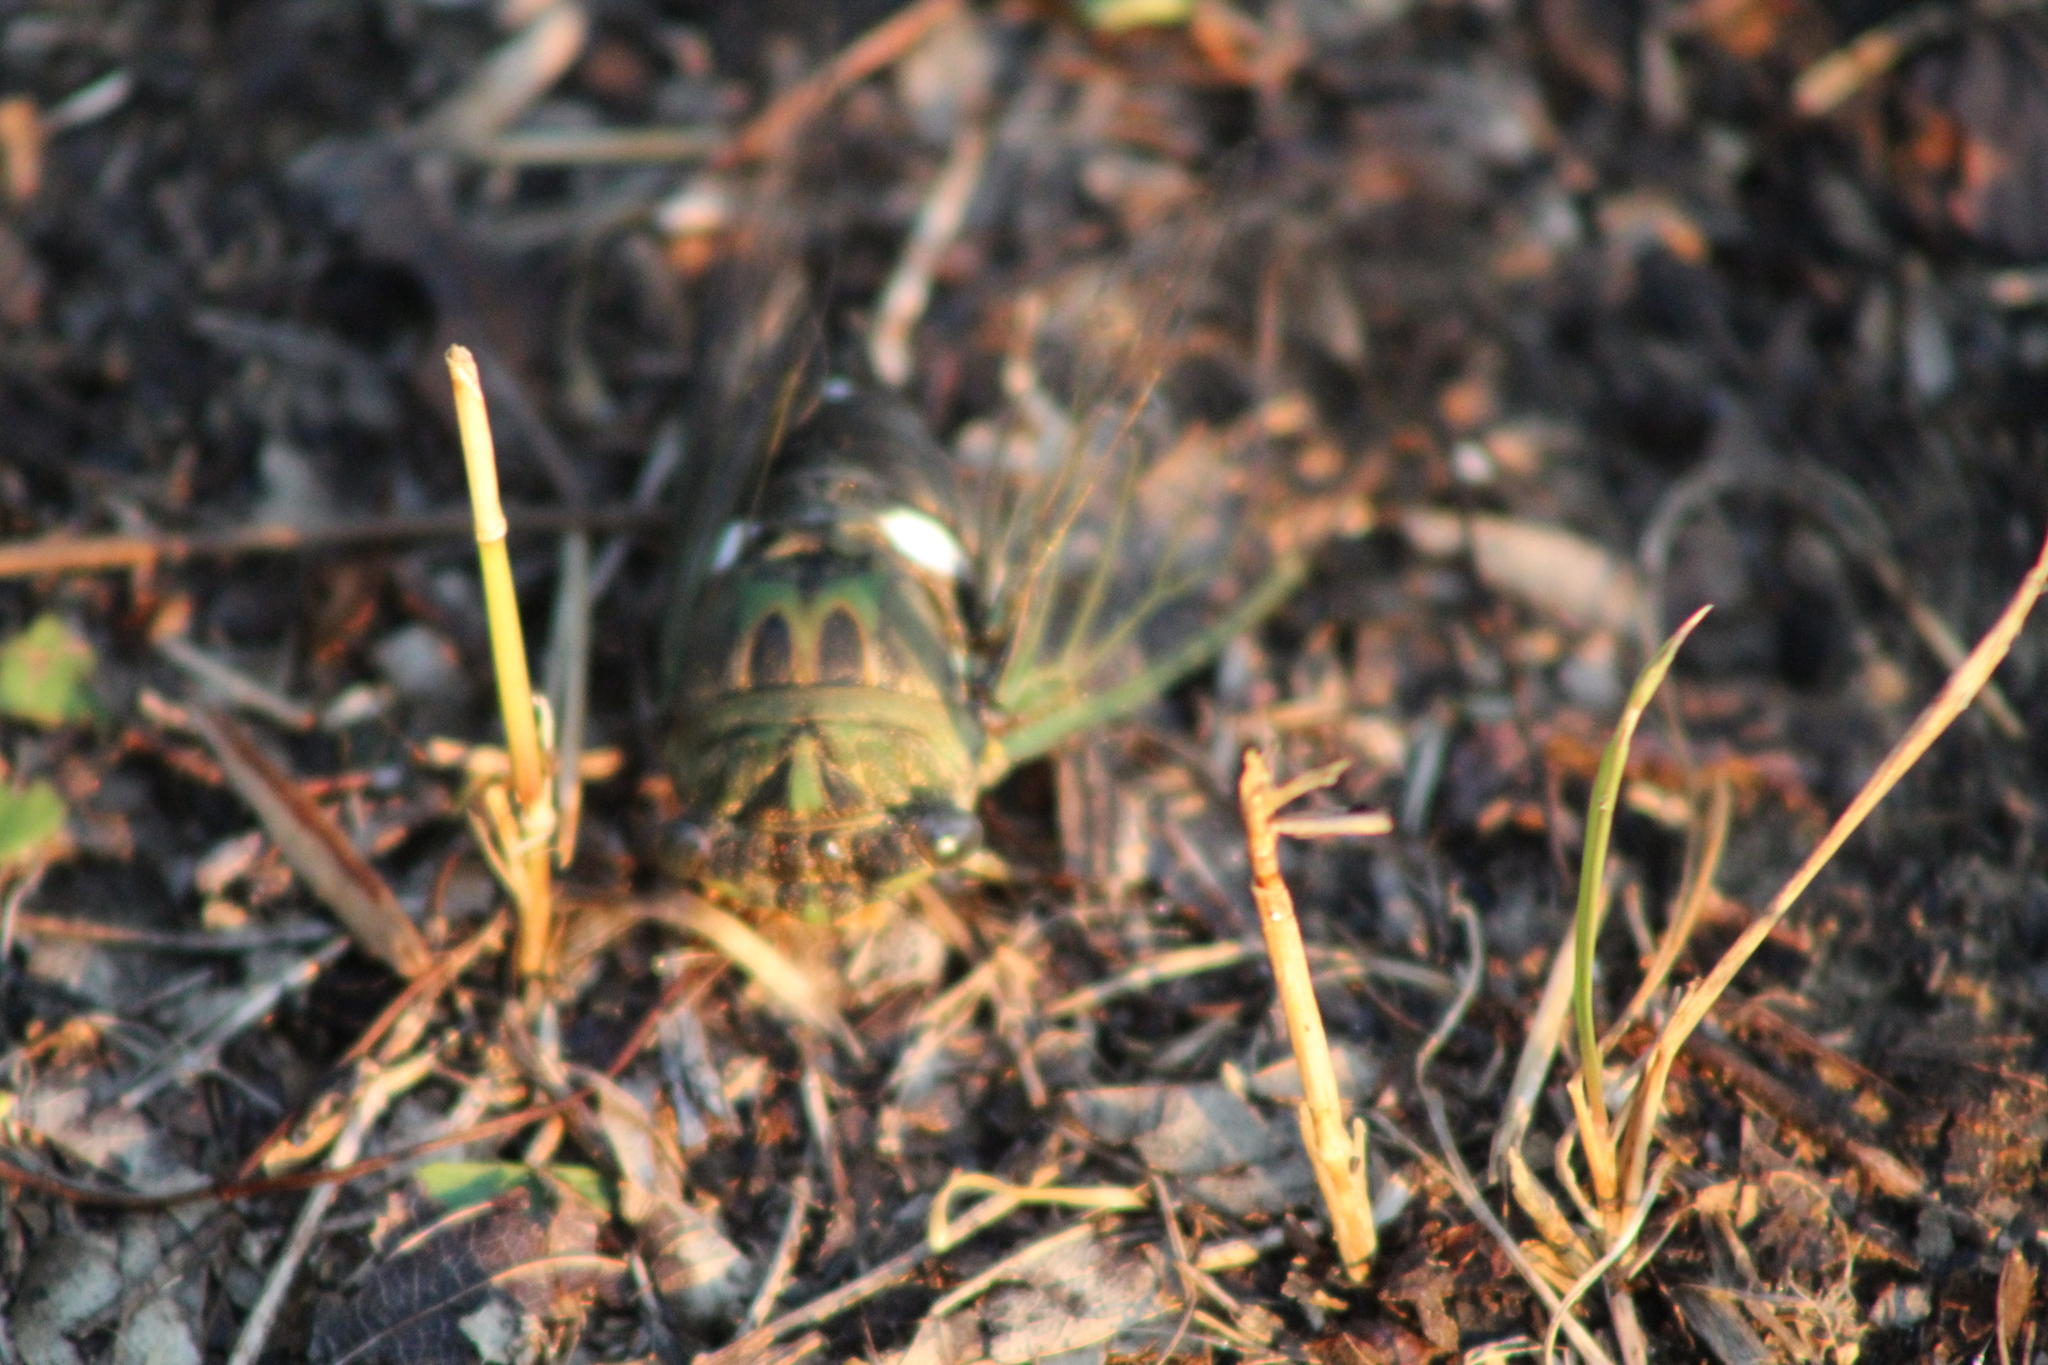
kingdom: Animalia
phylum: Arthropoda
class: Insecta
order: Hemiptera
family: Cicadidae
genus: Neotibicen
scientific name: Neotibicen pruinosus
